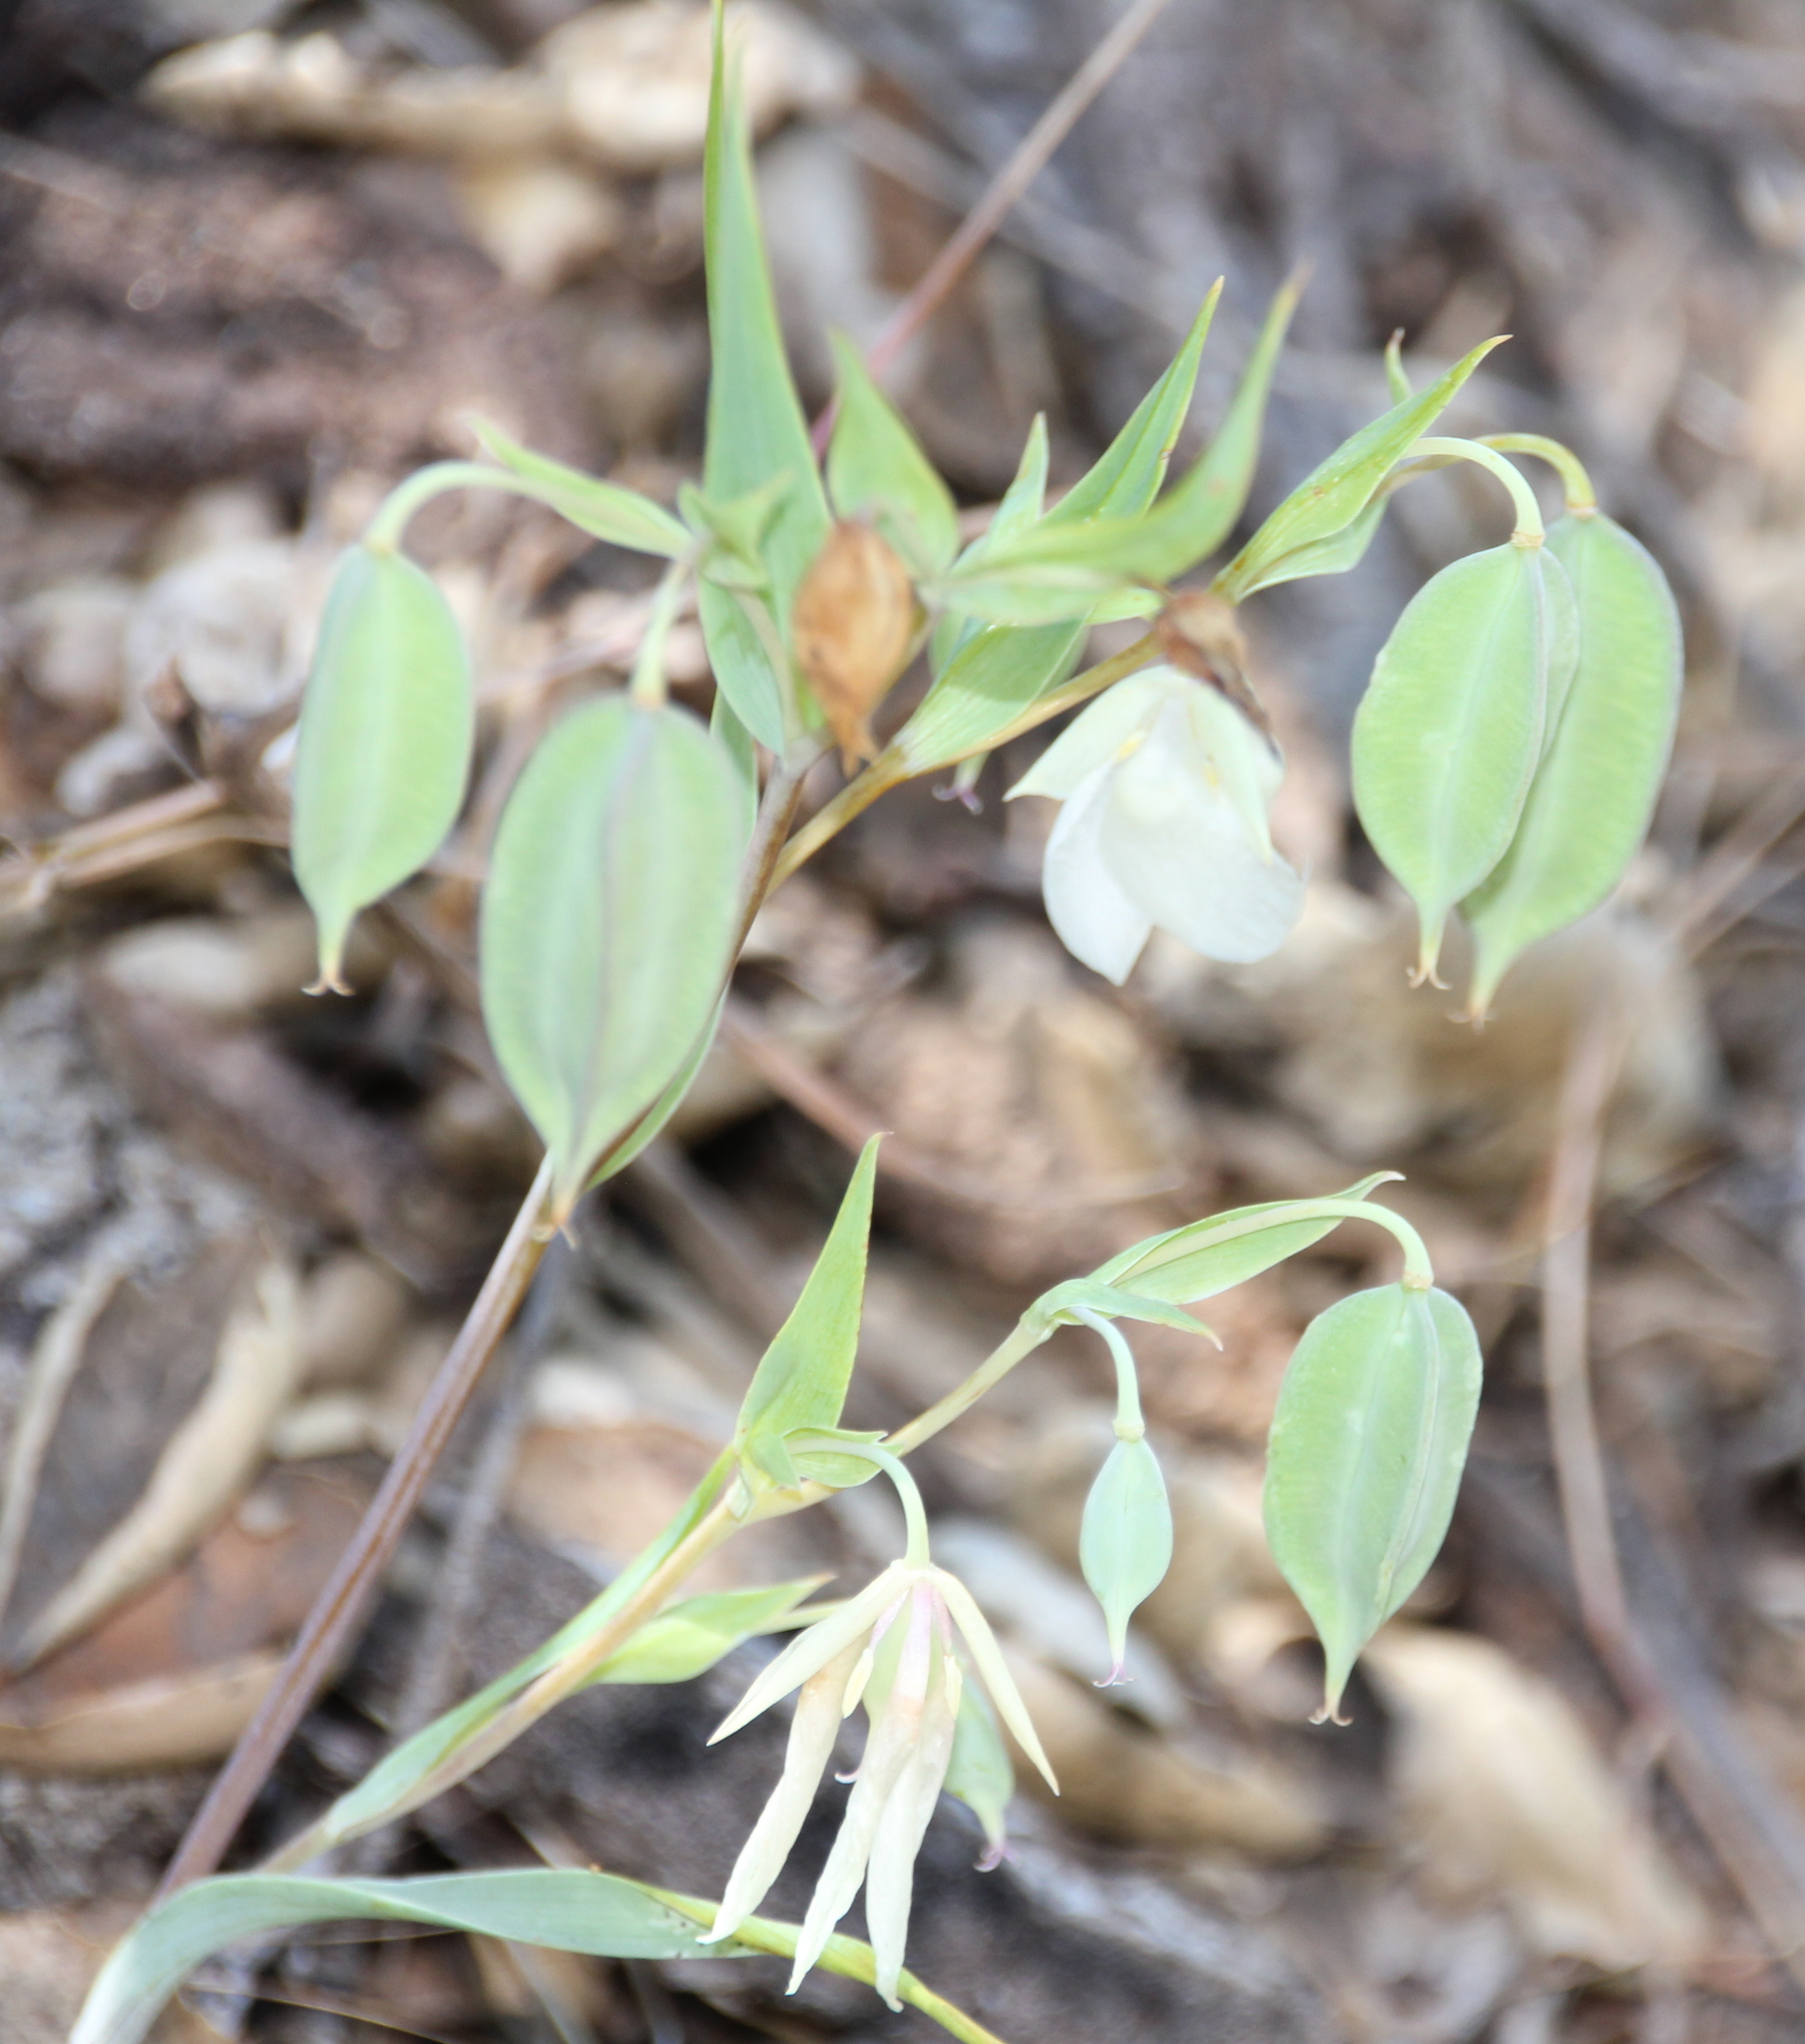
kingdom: Plantae
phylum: Tracheophyta
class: Liliopsida
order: Liliales
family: Liliaceae
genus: Calochortus
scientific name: Calochortus albus
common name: Fairy-lantern
